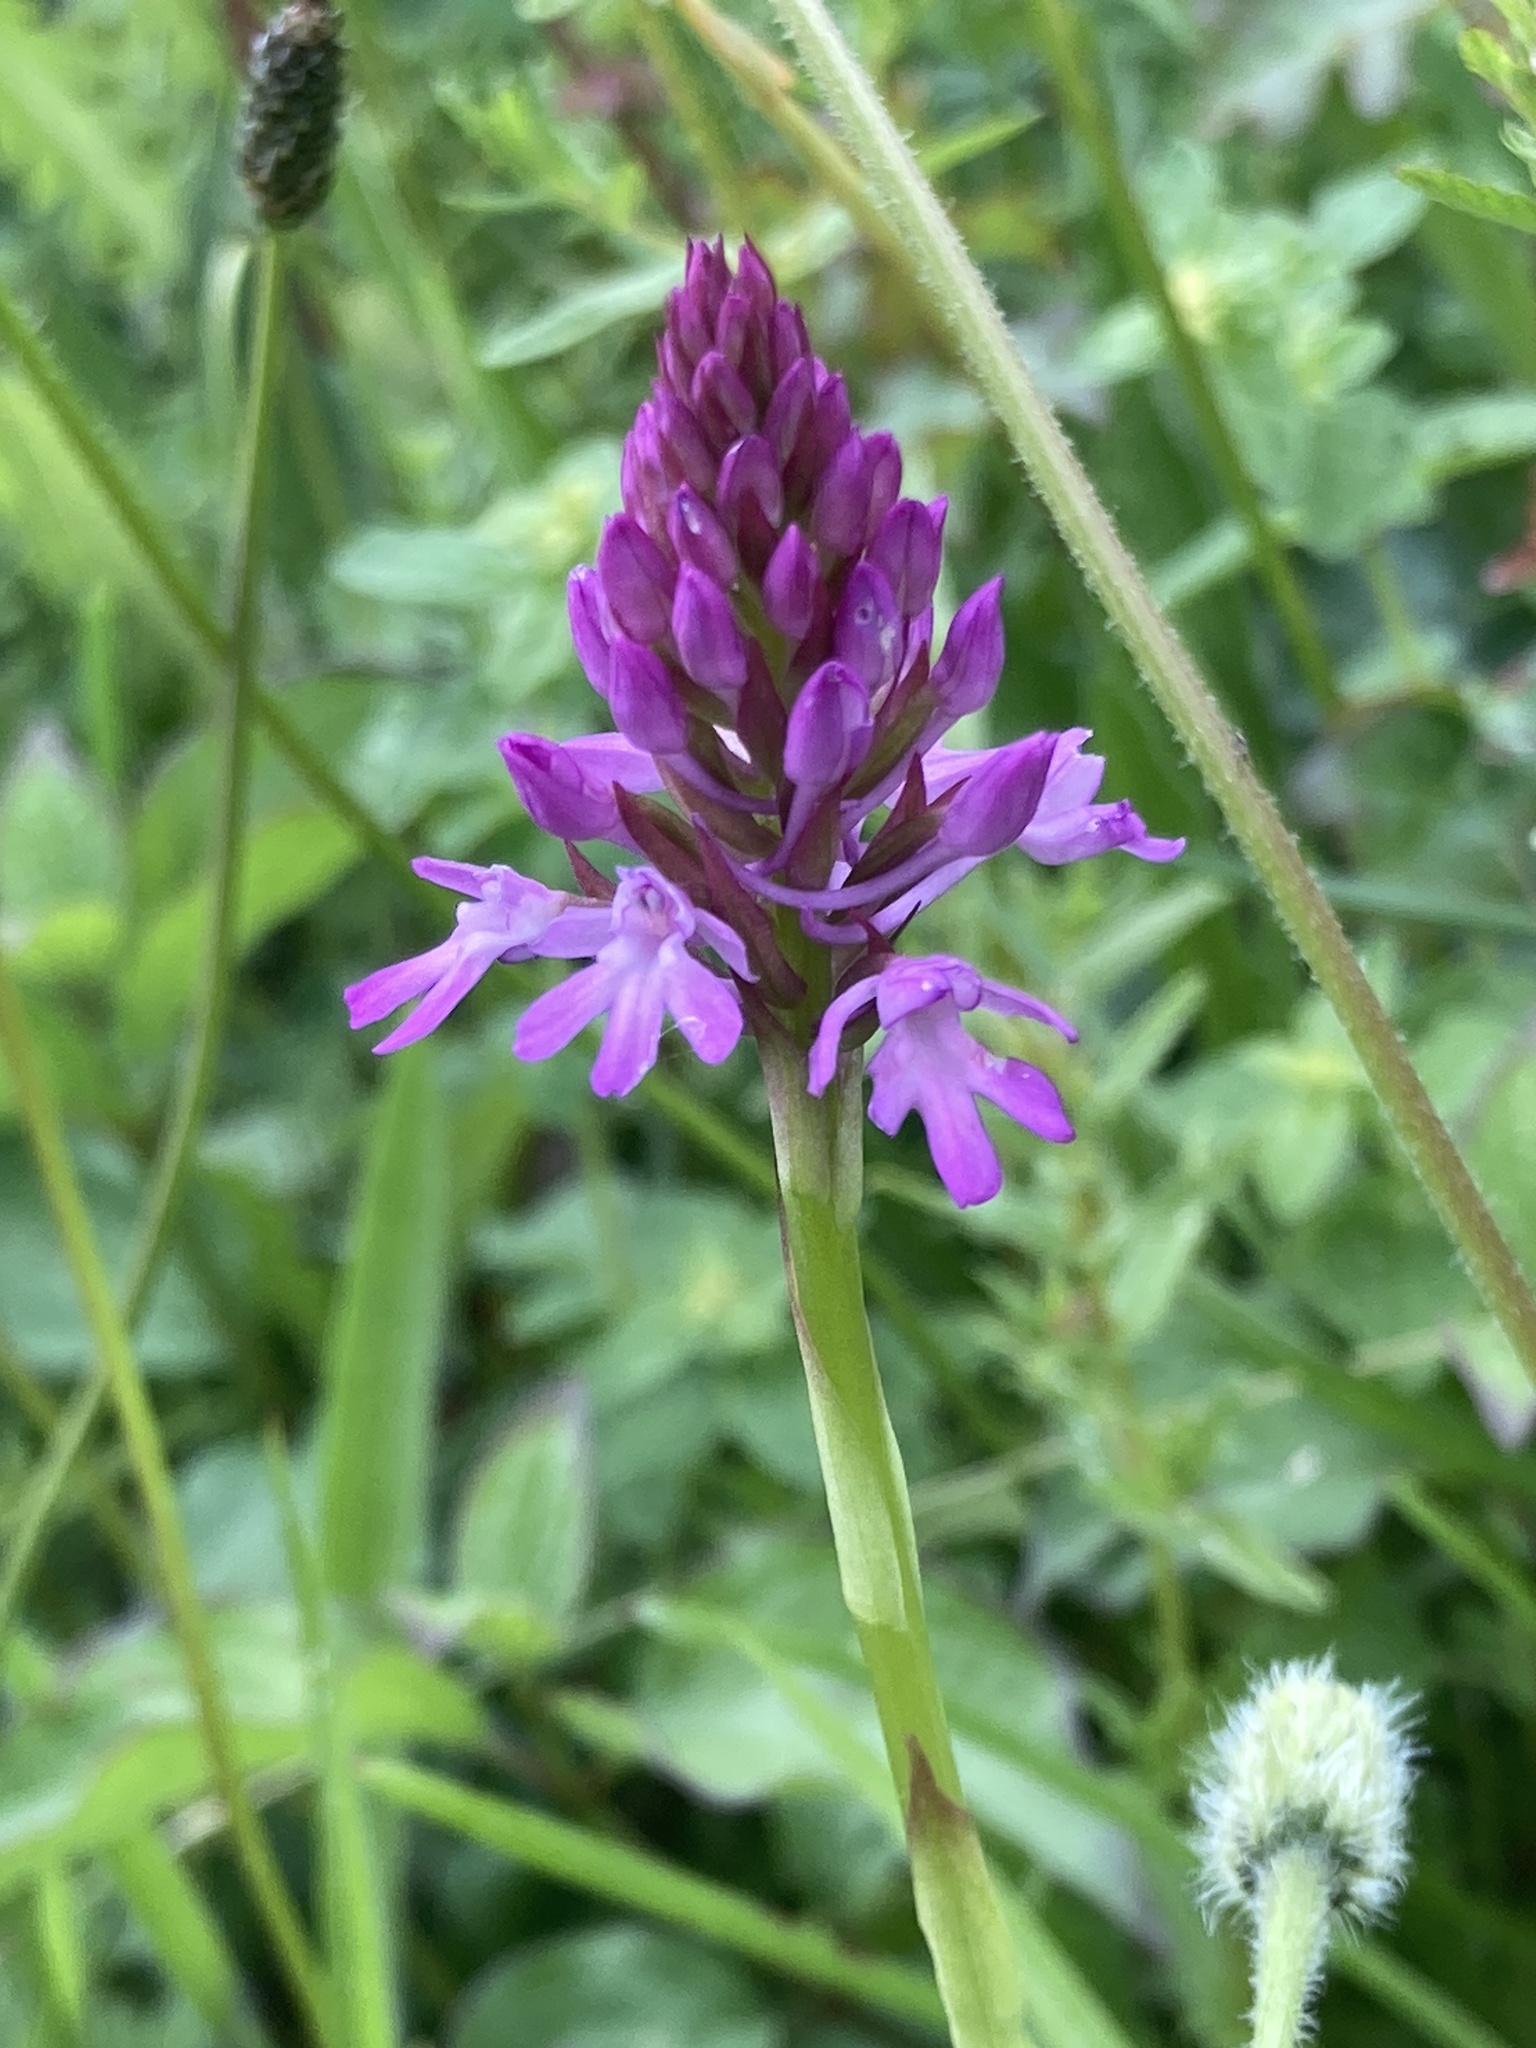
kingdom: Plantae
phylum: Tracheophyta
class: Liliopsida
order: Asparagales
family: Orchidaceae
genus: Anacamptis
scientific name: Anacamptis pyramidalis
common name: Pyramidal orchid
